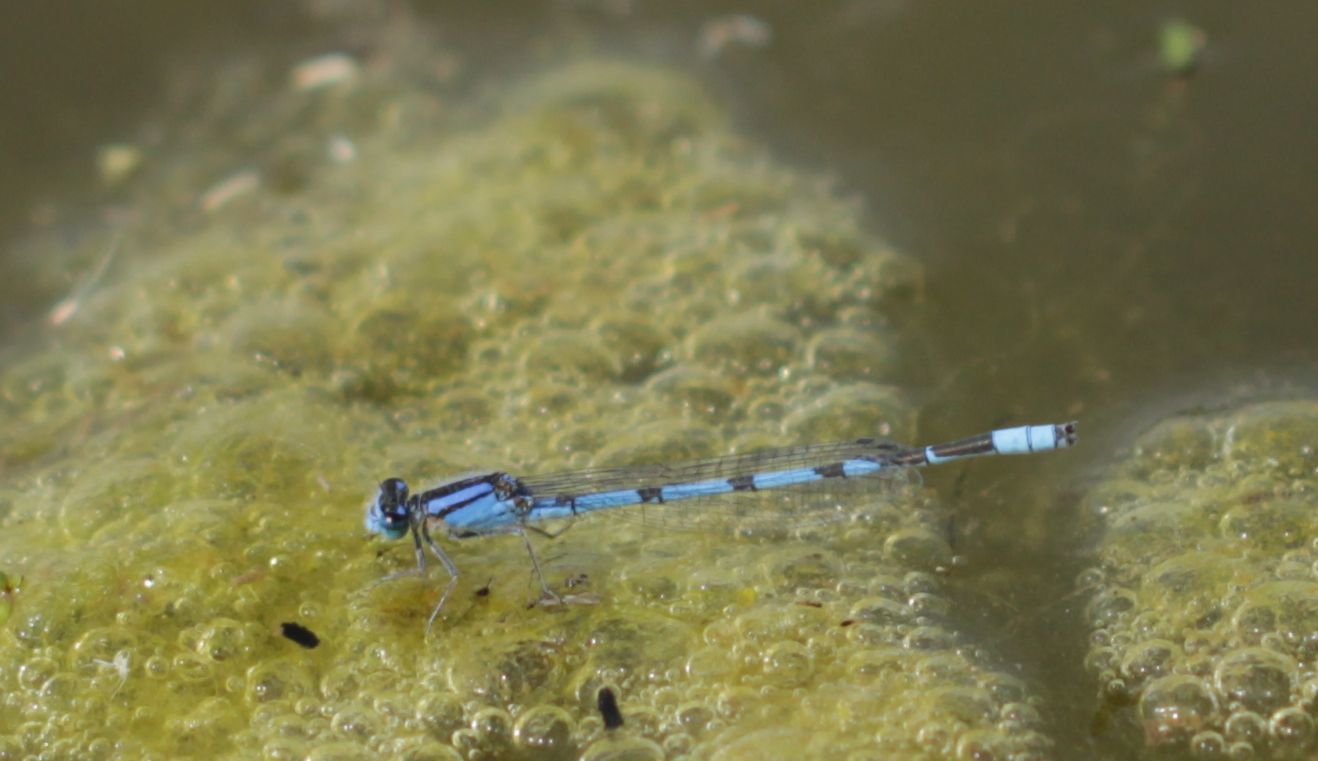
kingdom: Animalia
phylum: Arthropoda
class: Insecta
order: Odonata
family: Coenagrionidae
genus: Enallagma
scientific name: Enallagma civile
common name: Damselfly
